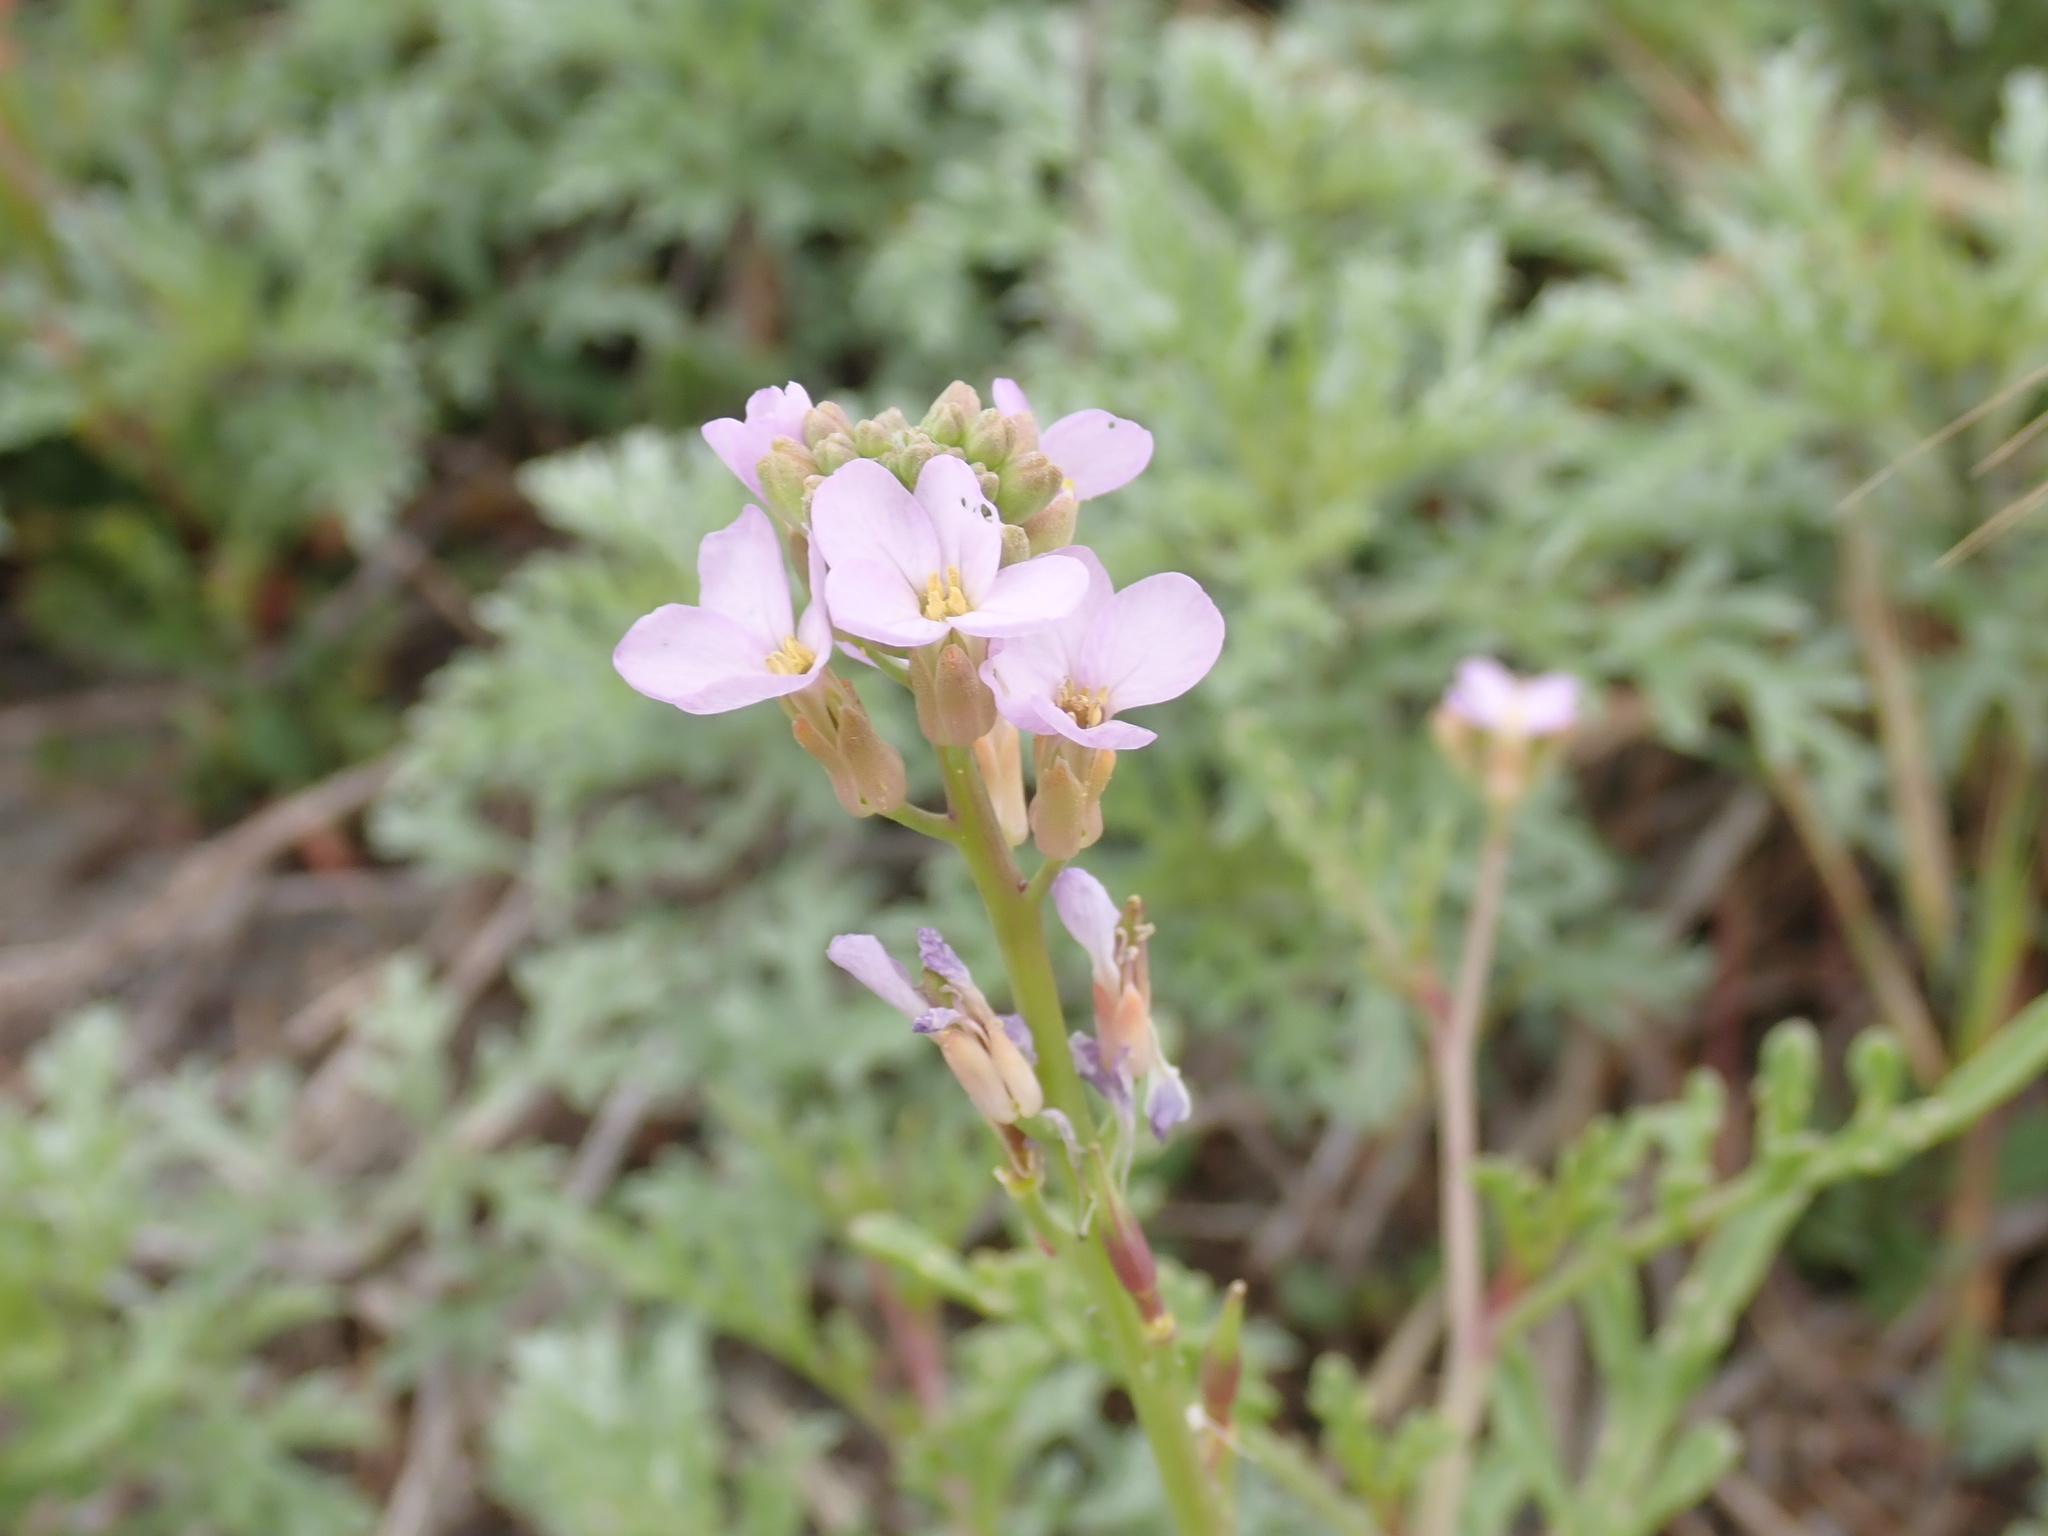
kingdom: Plantae
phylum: Tracheophyta
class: Magnoliopsida
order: Brassicales
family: Brassicaceae
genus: Cakile
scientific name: Cakile maritima
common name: Sea rocket
